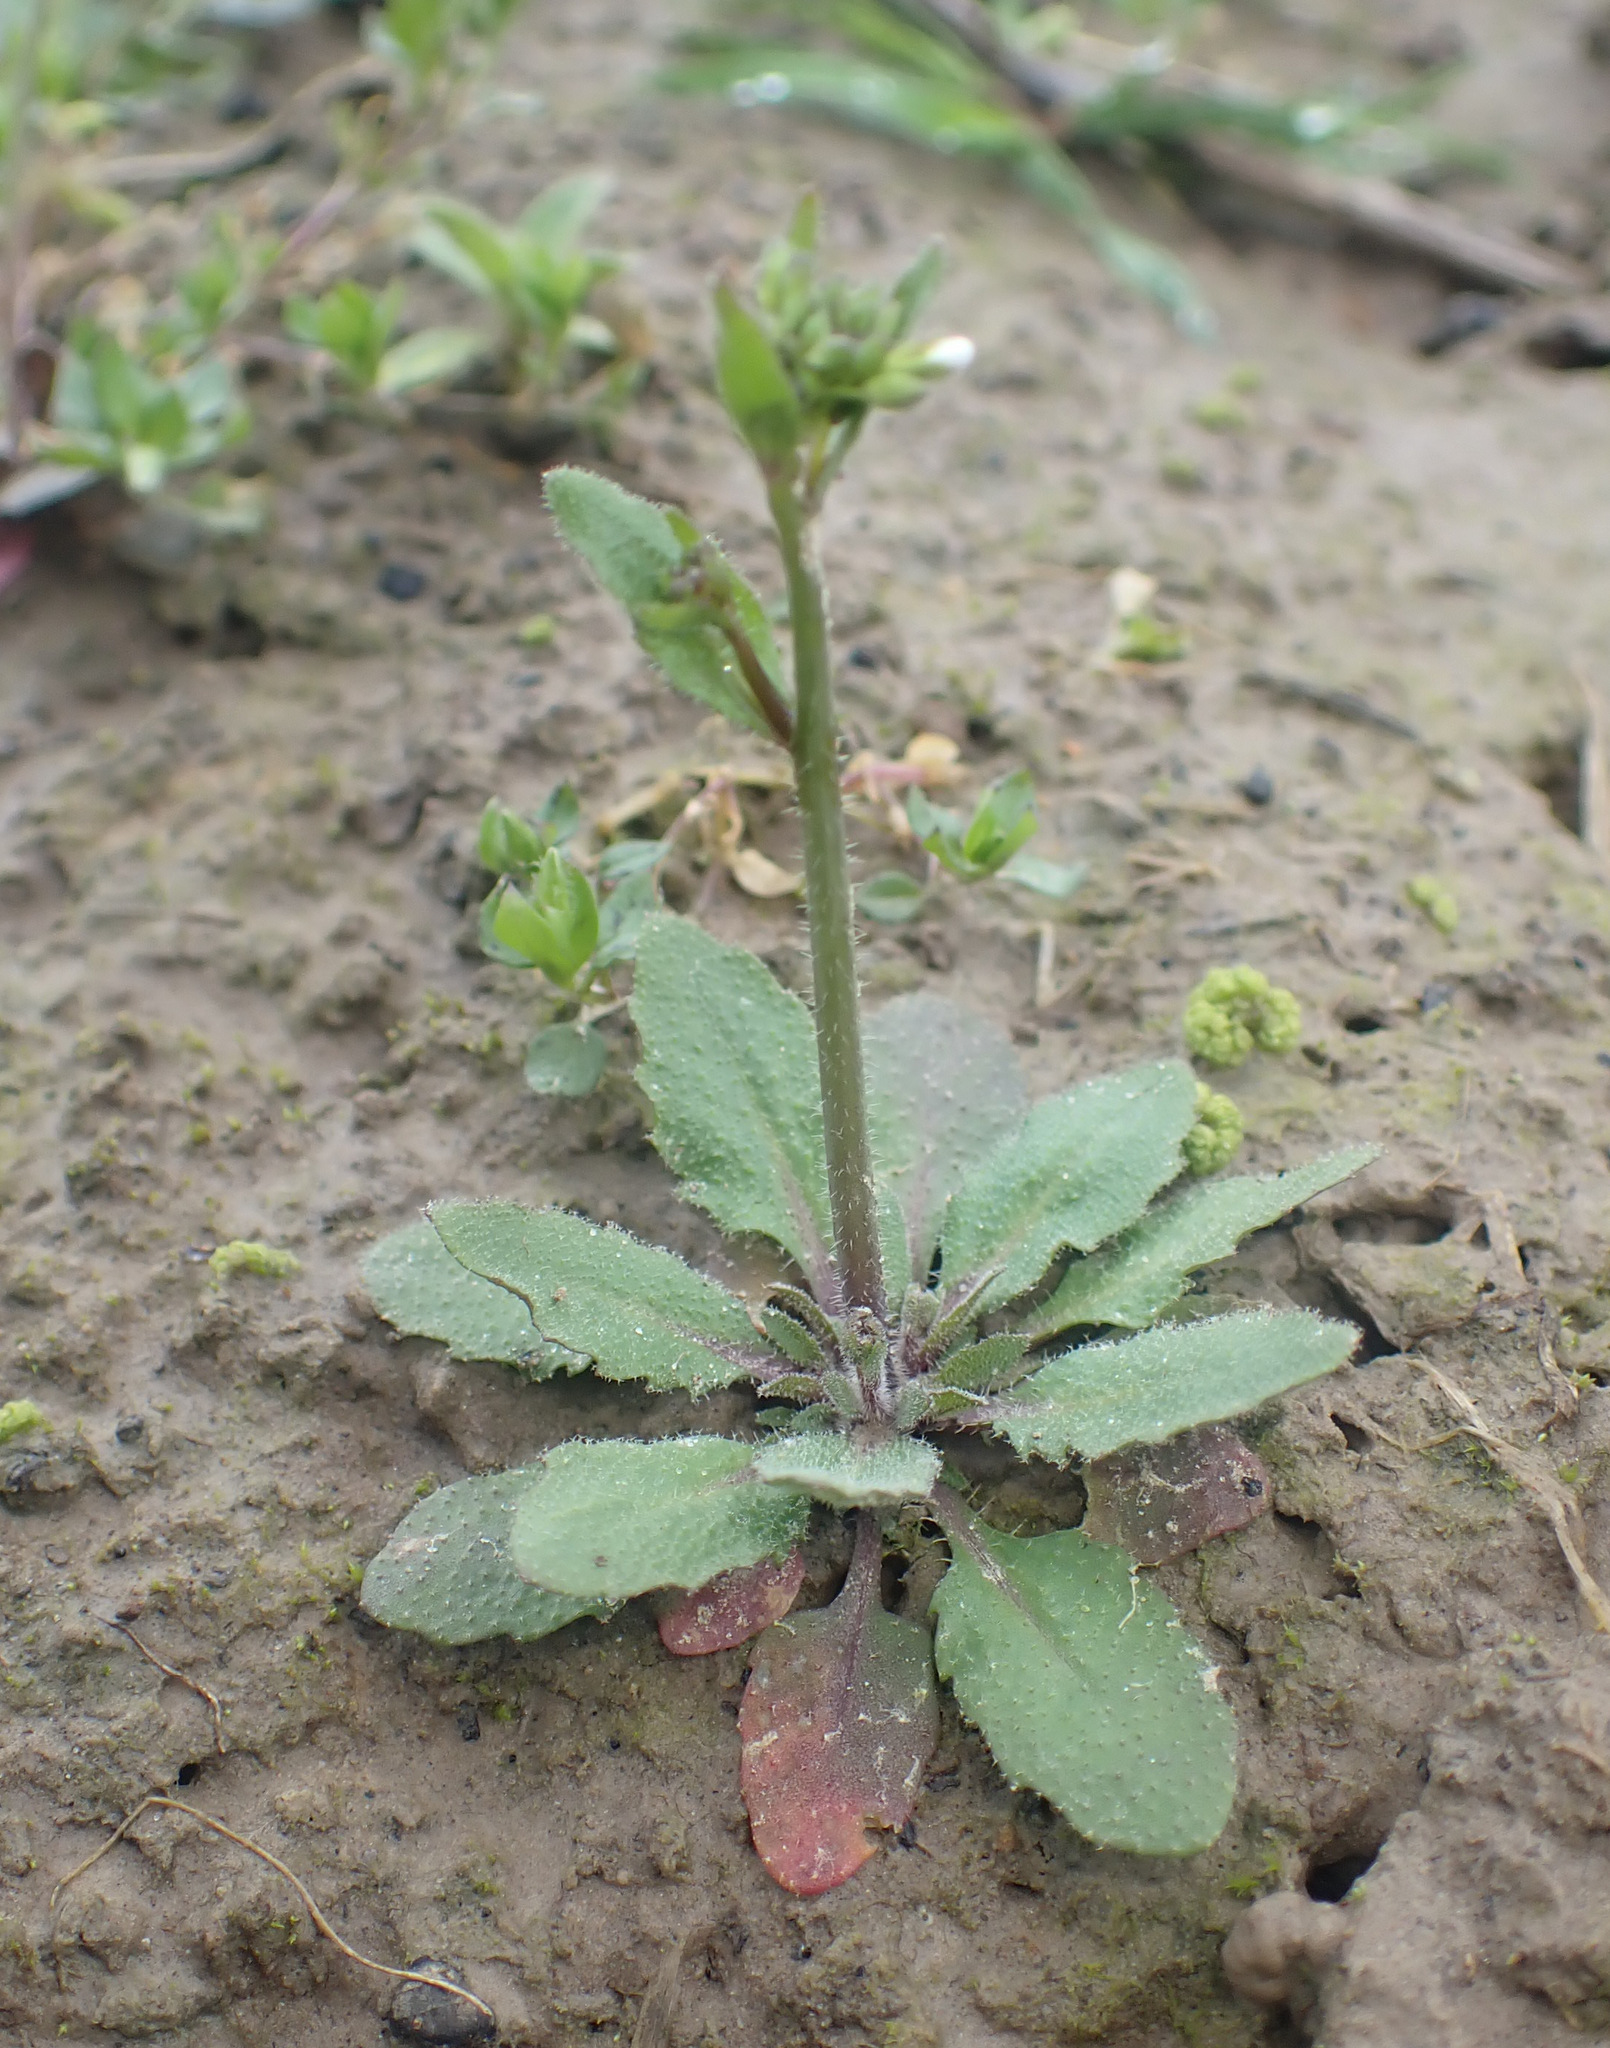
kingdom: Plantae
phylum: Tracheophyta
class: Magnoliopsida
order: Brassicales
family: Brassicaceae
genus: Arabidopsis
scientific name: Arabidopsis thaliana
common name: Thale cress
